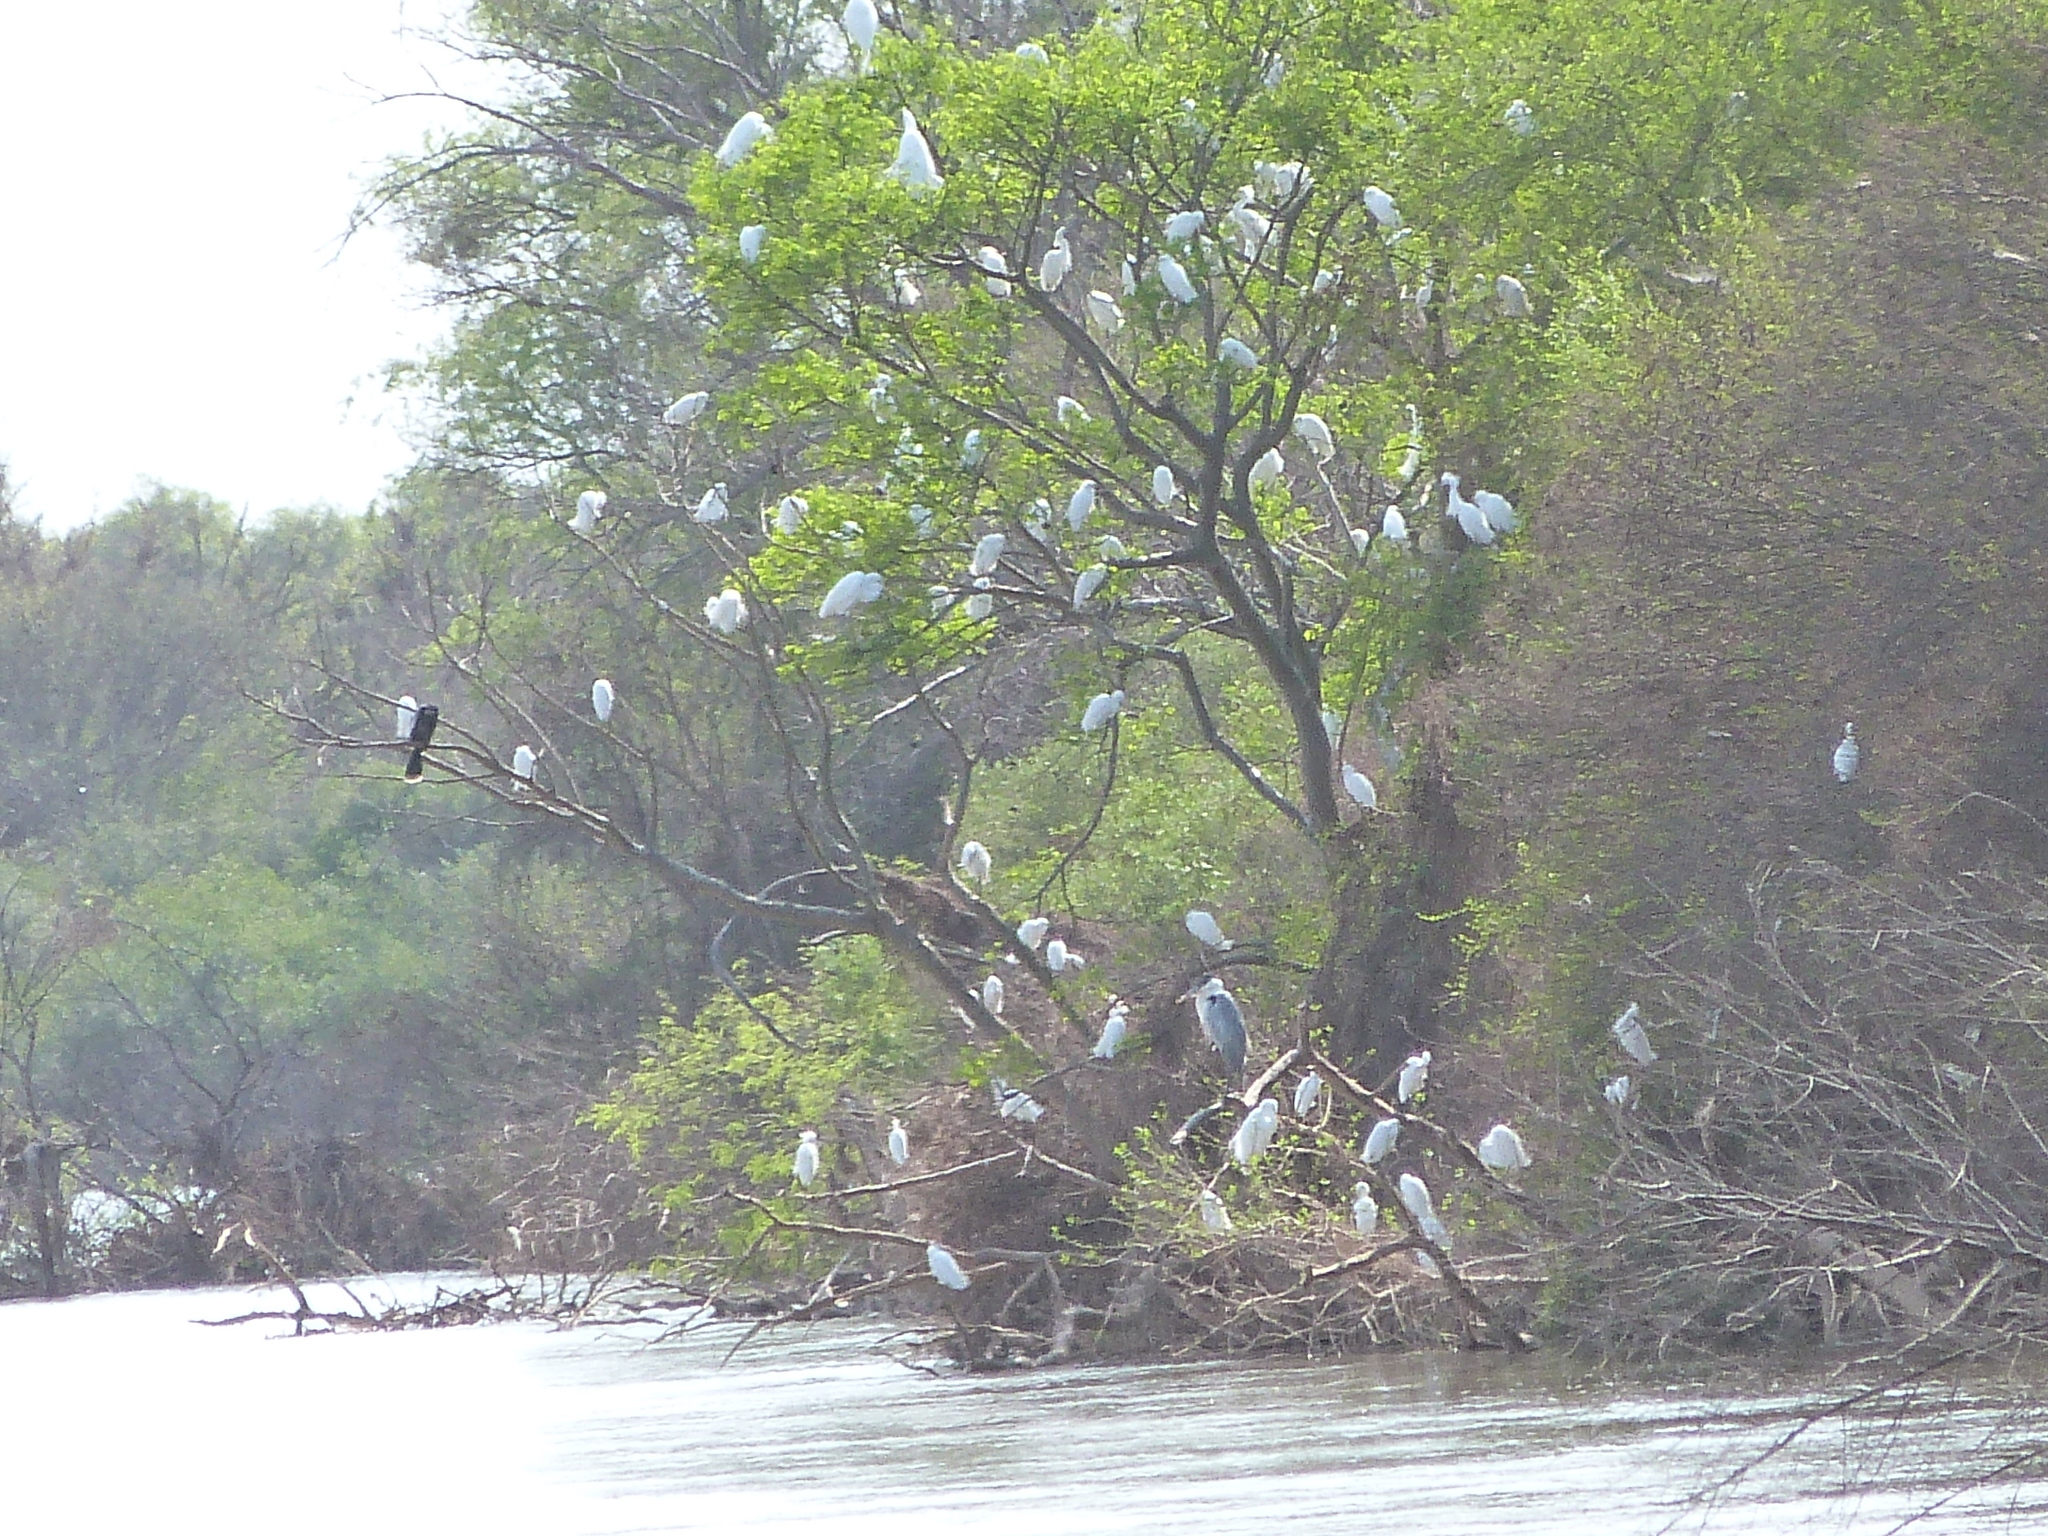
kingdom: Animalia
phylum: Chordata
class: Aves
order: Pelecaniformes
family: Ardeidae
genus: Ardea
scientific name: Ardea alba
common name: Great egret
